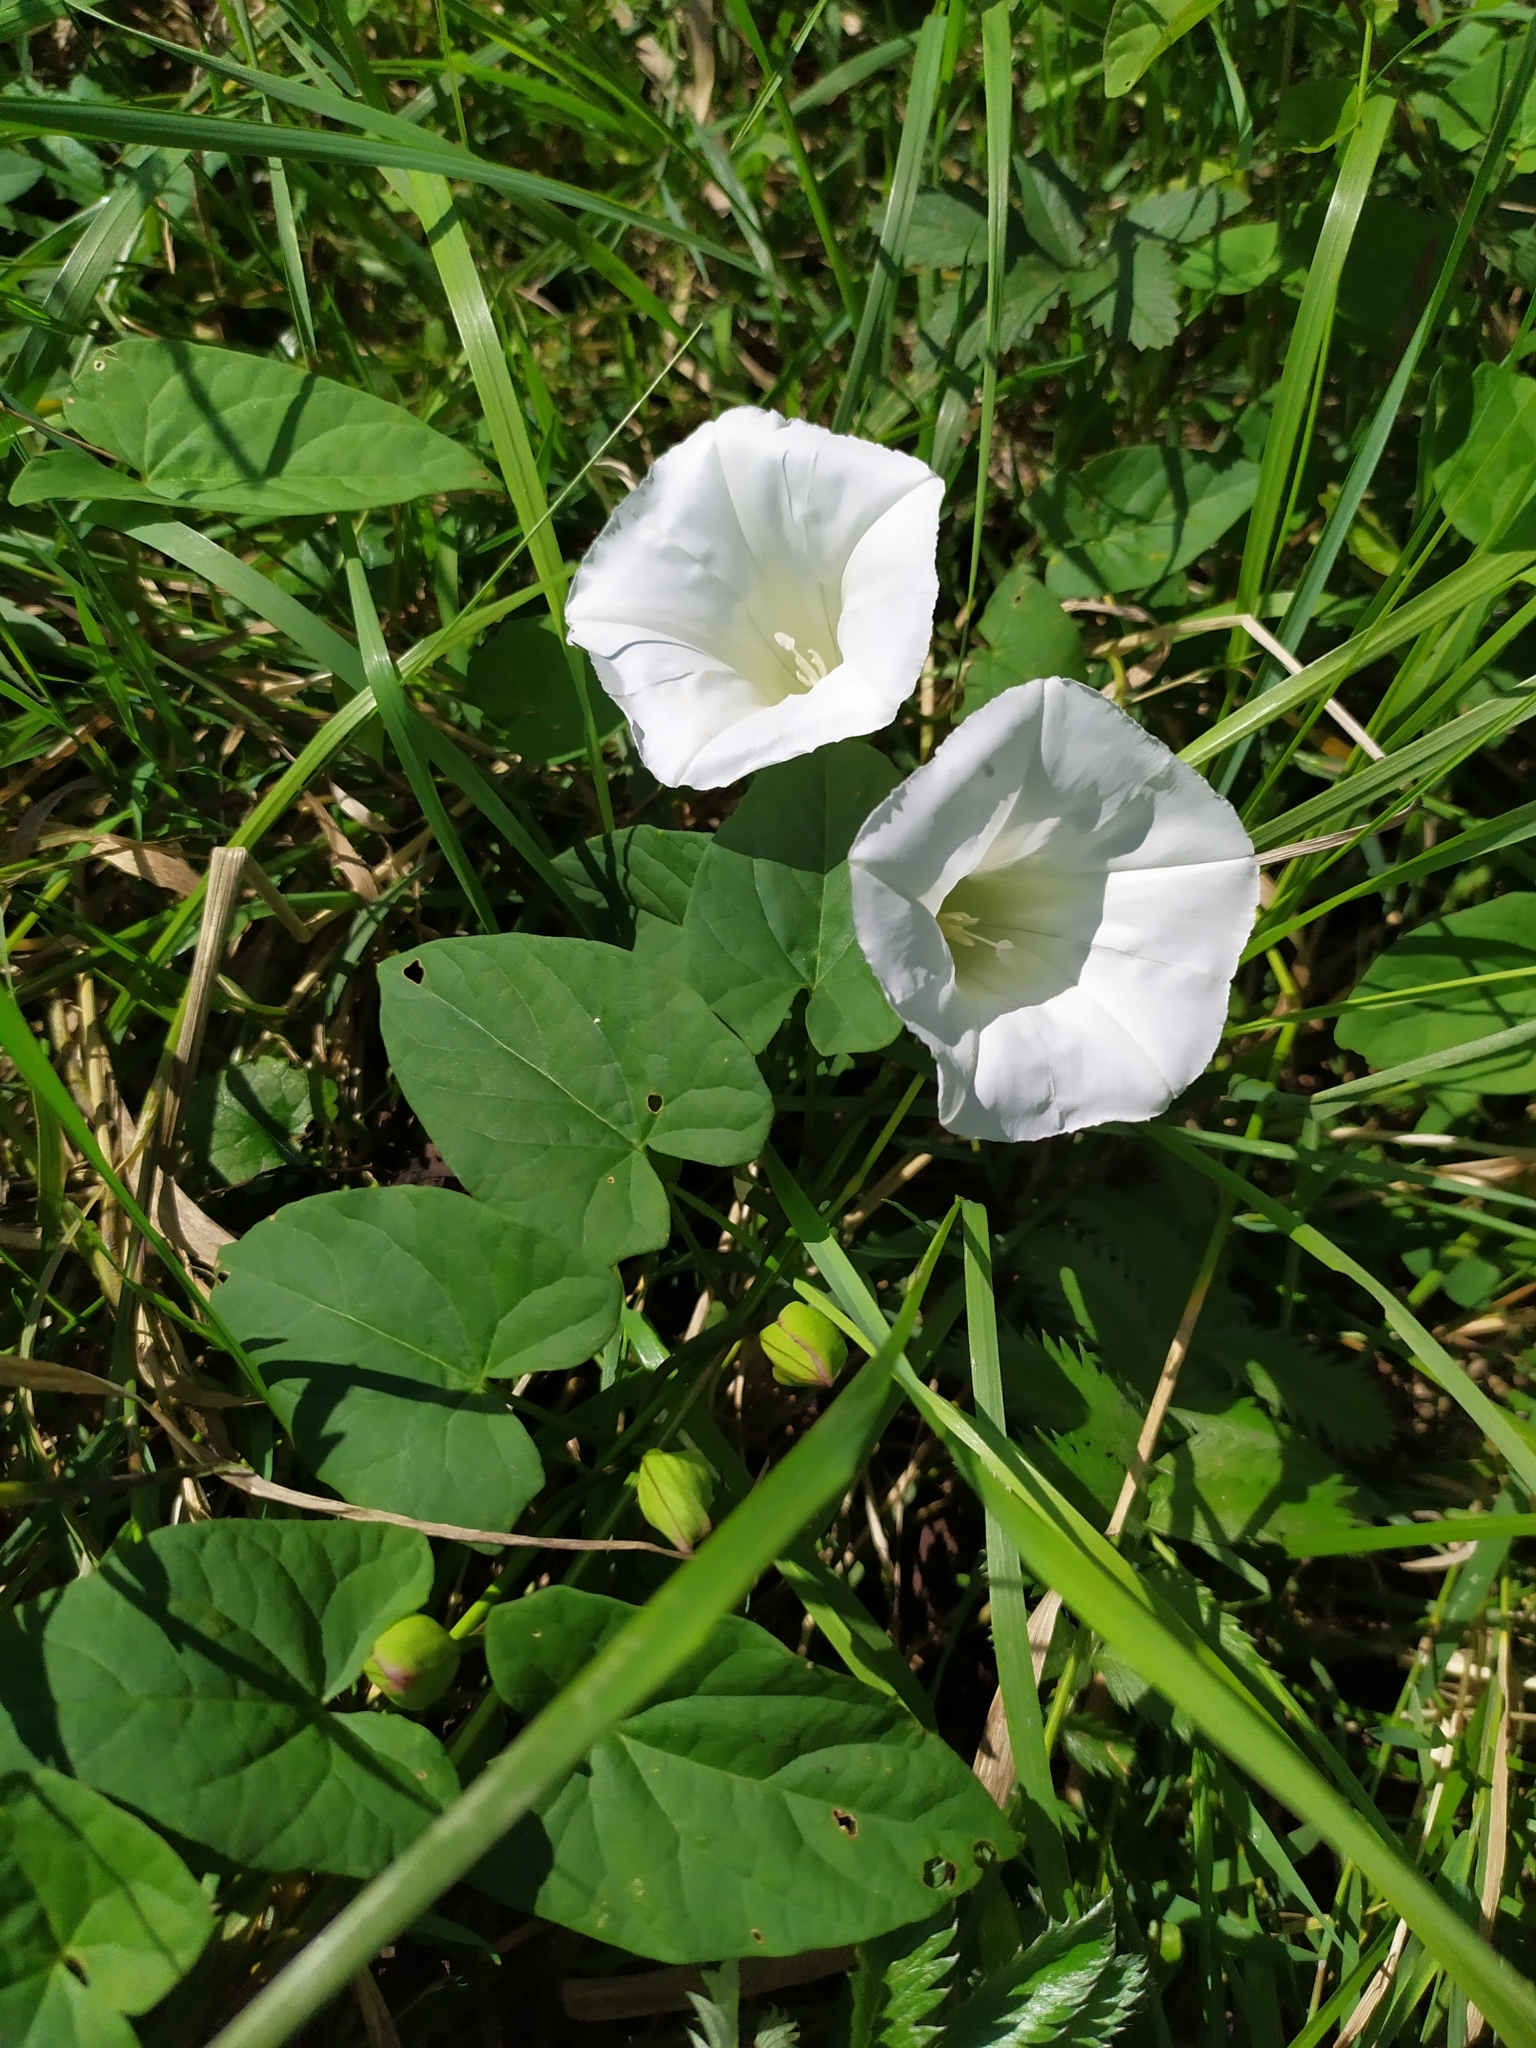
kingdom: Plantae
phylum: Tracheophyta
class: Magnoliopsida
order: Solanales
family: Convolvulaceae
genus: Calystegia
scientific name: Calystegia sepium
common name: Hedge bindweed
